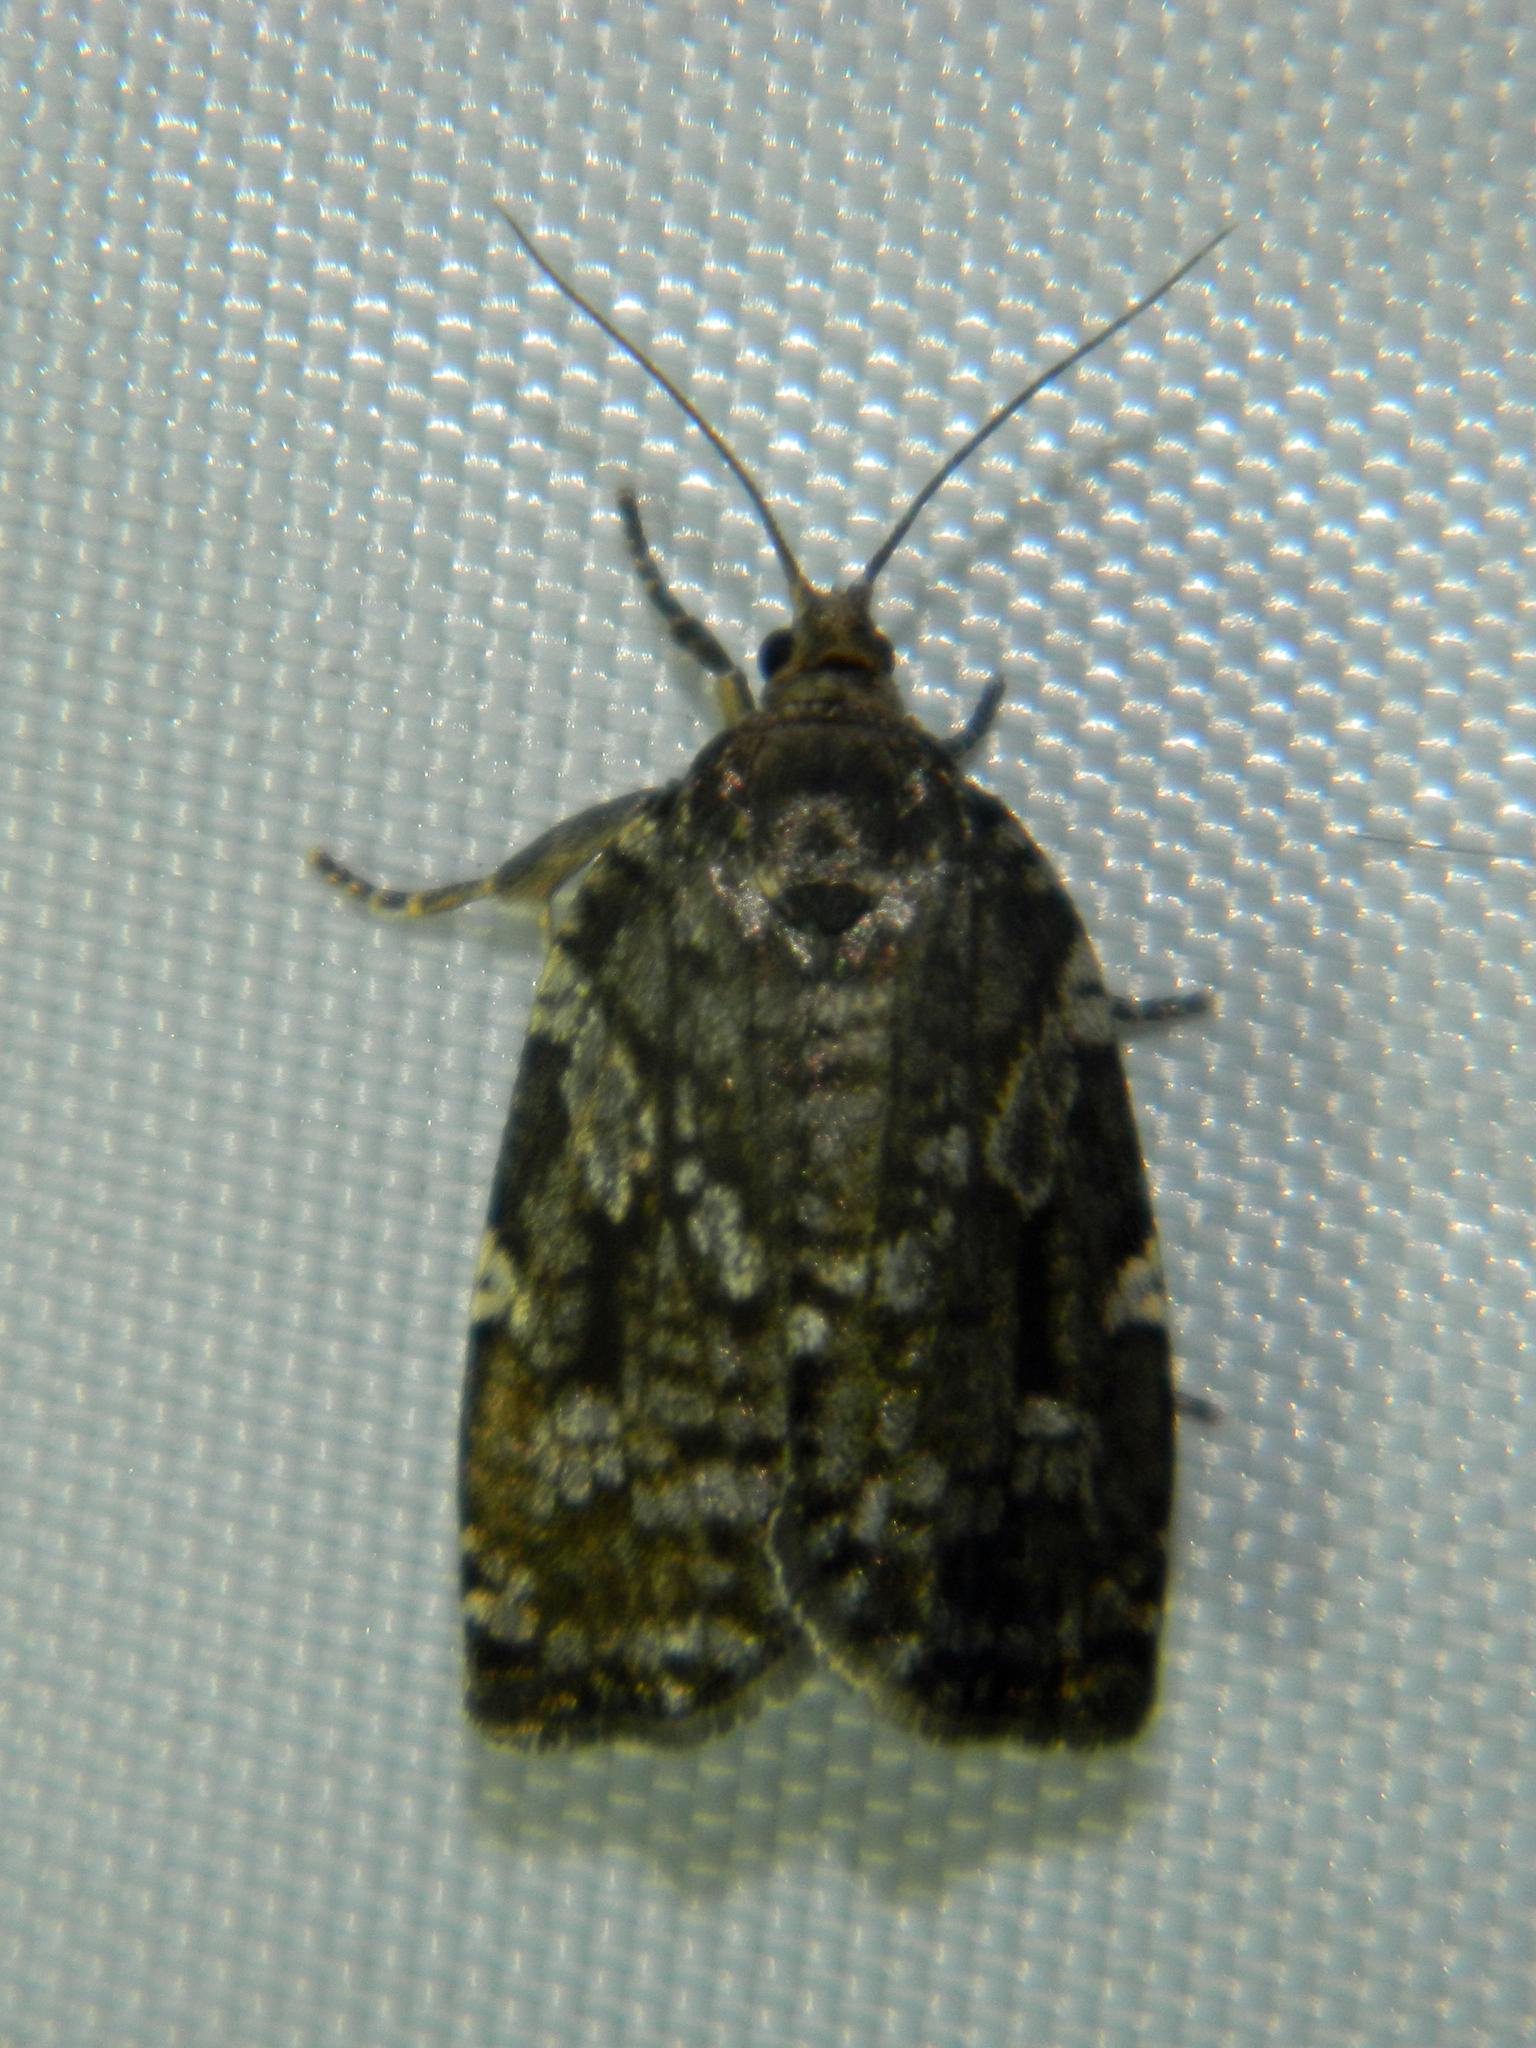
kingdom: Animalia
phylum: Arthropoda
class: Insecta
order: Lepidoptera
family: Tortricidae
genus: Choristoneura
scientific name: Choristoneura fumiferana
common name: Spruce budworm
